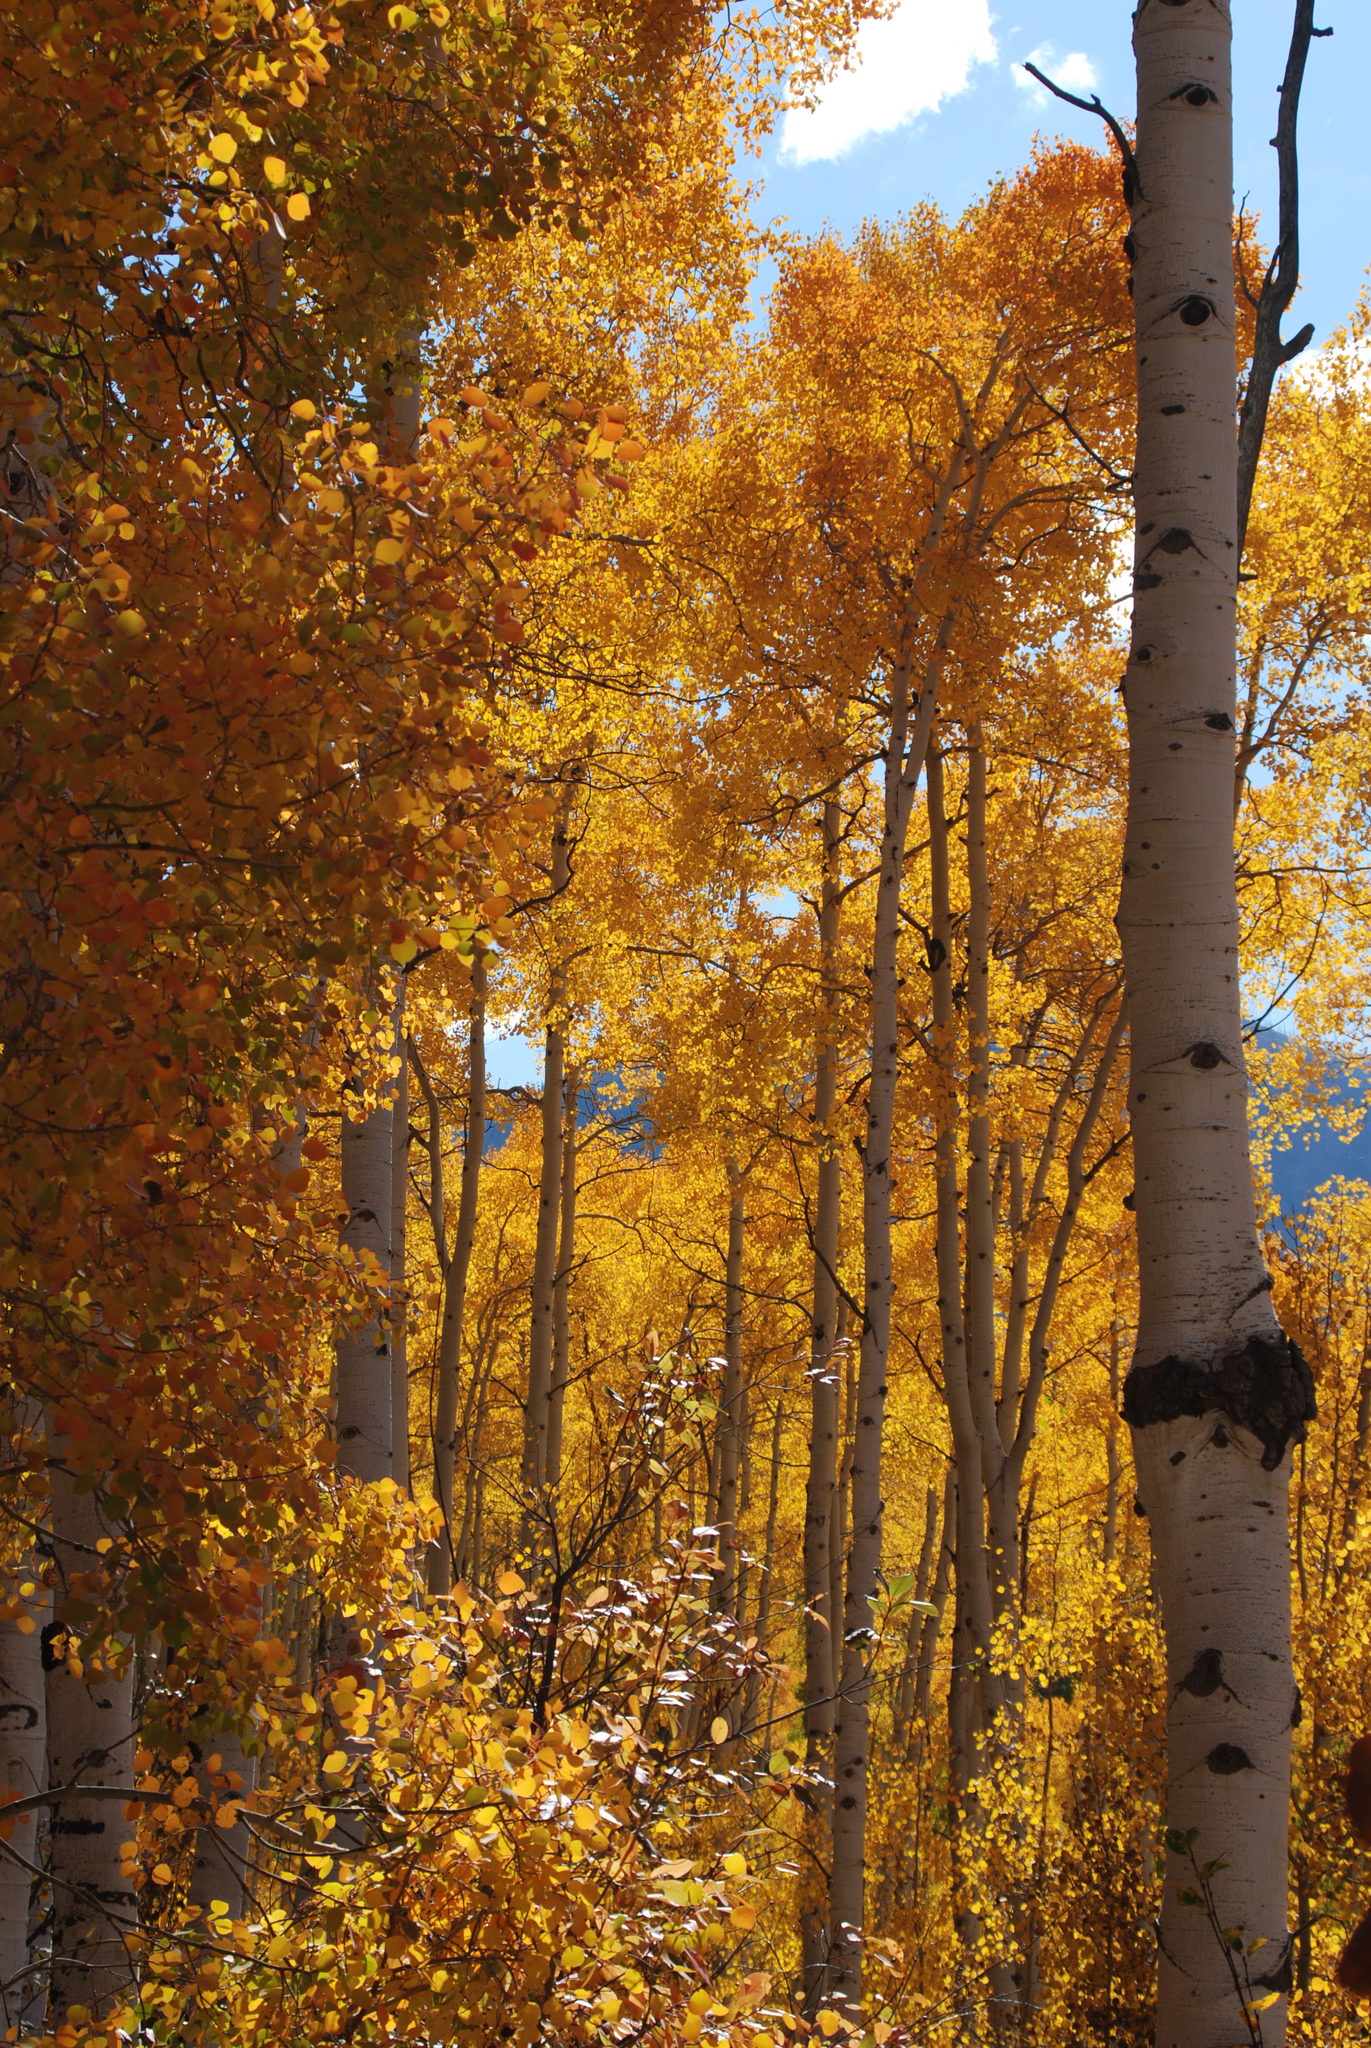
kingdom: Plantae
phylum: Tracheophyta
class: Magnoliopsida
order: Malpighiales
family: Salicaceae
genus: Populus
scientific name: Populus tremuloides
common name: Quaking aspen
